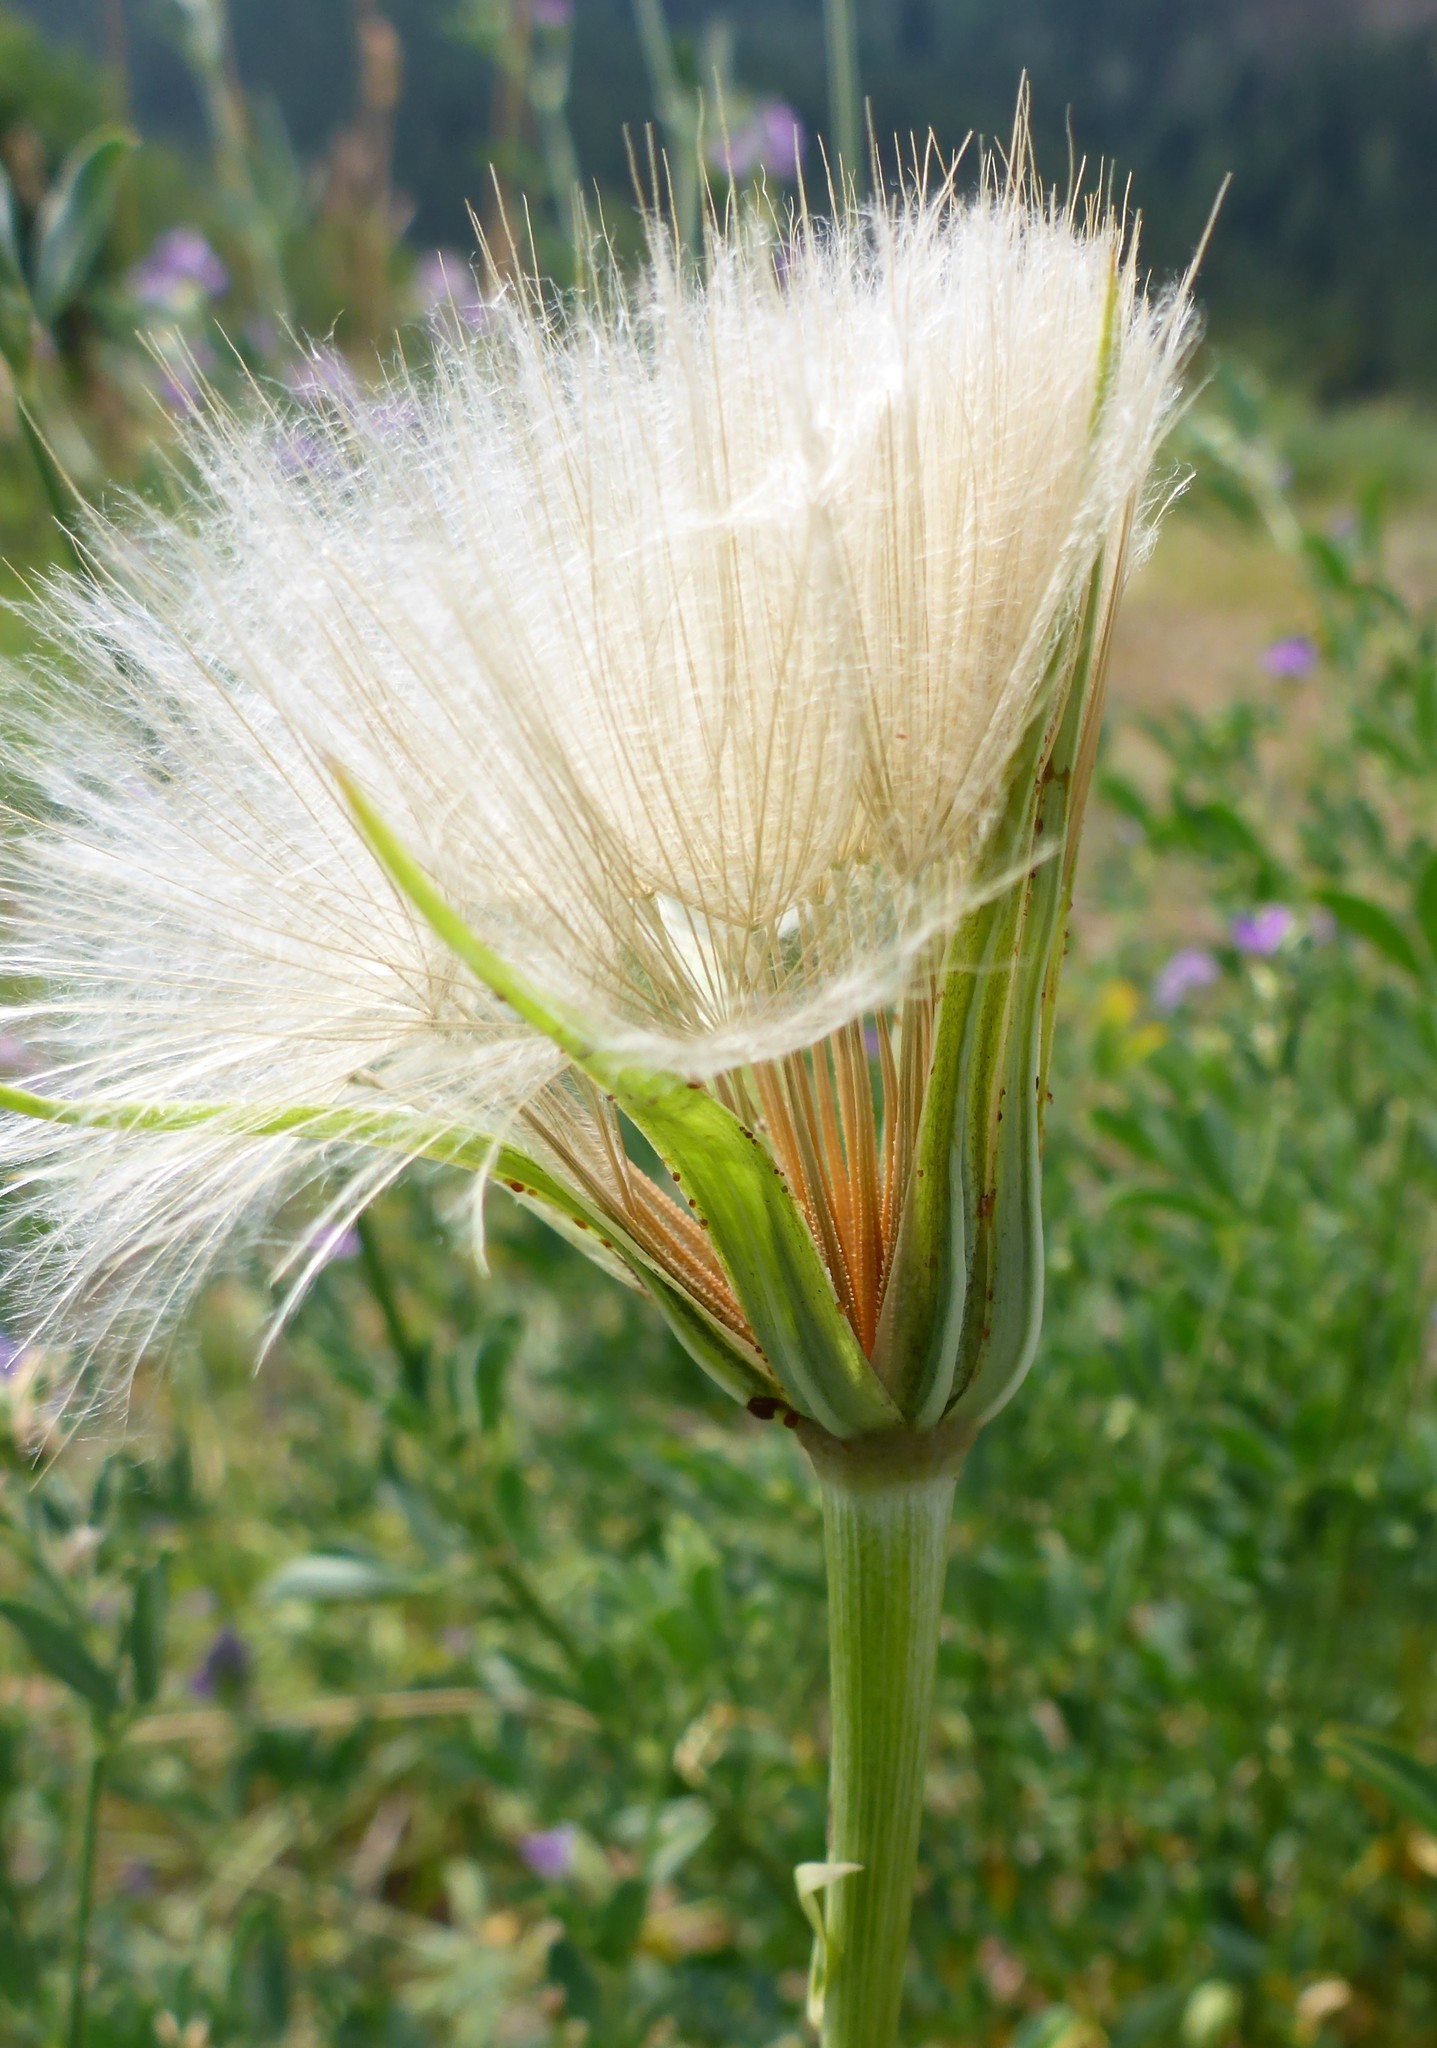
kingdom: Plantae
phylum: Tracheophyta
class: Magnoliopsida
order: Asterales
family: Asteraceae
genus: Tragopogon
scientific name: Tragopogon dubius
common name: Yellow salsify
